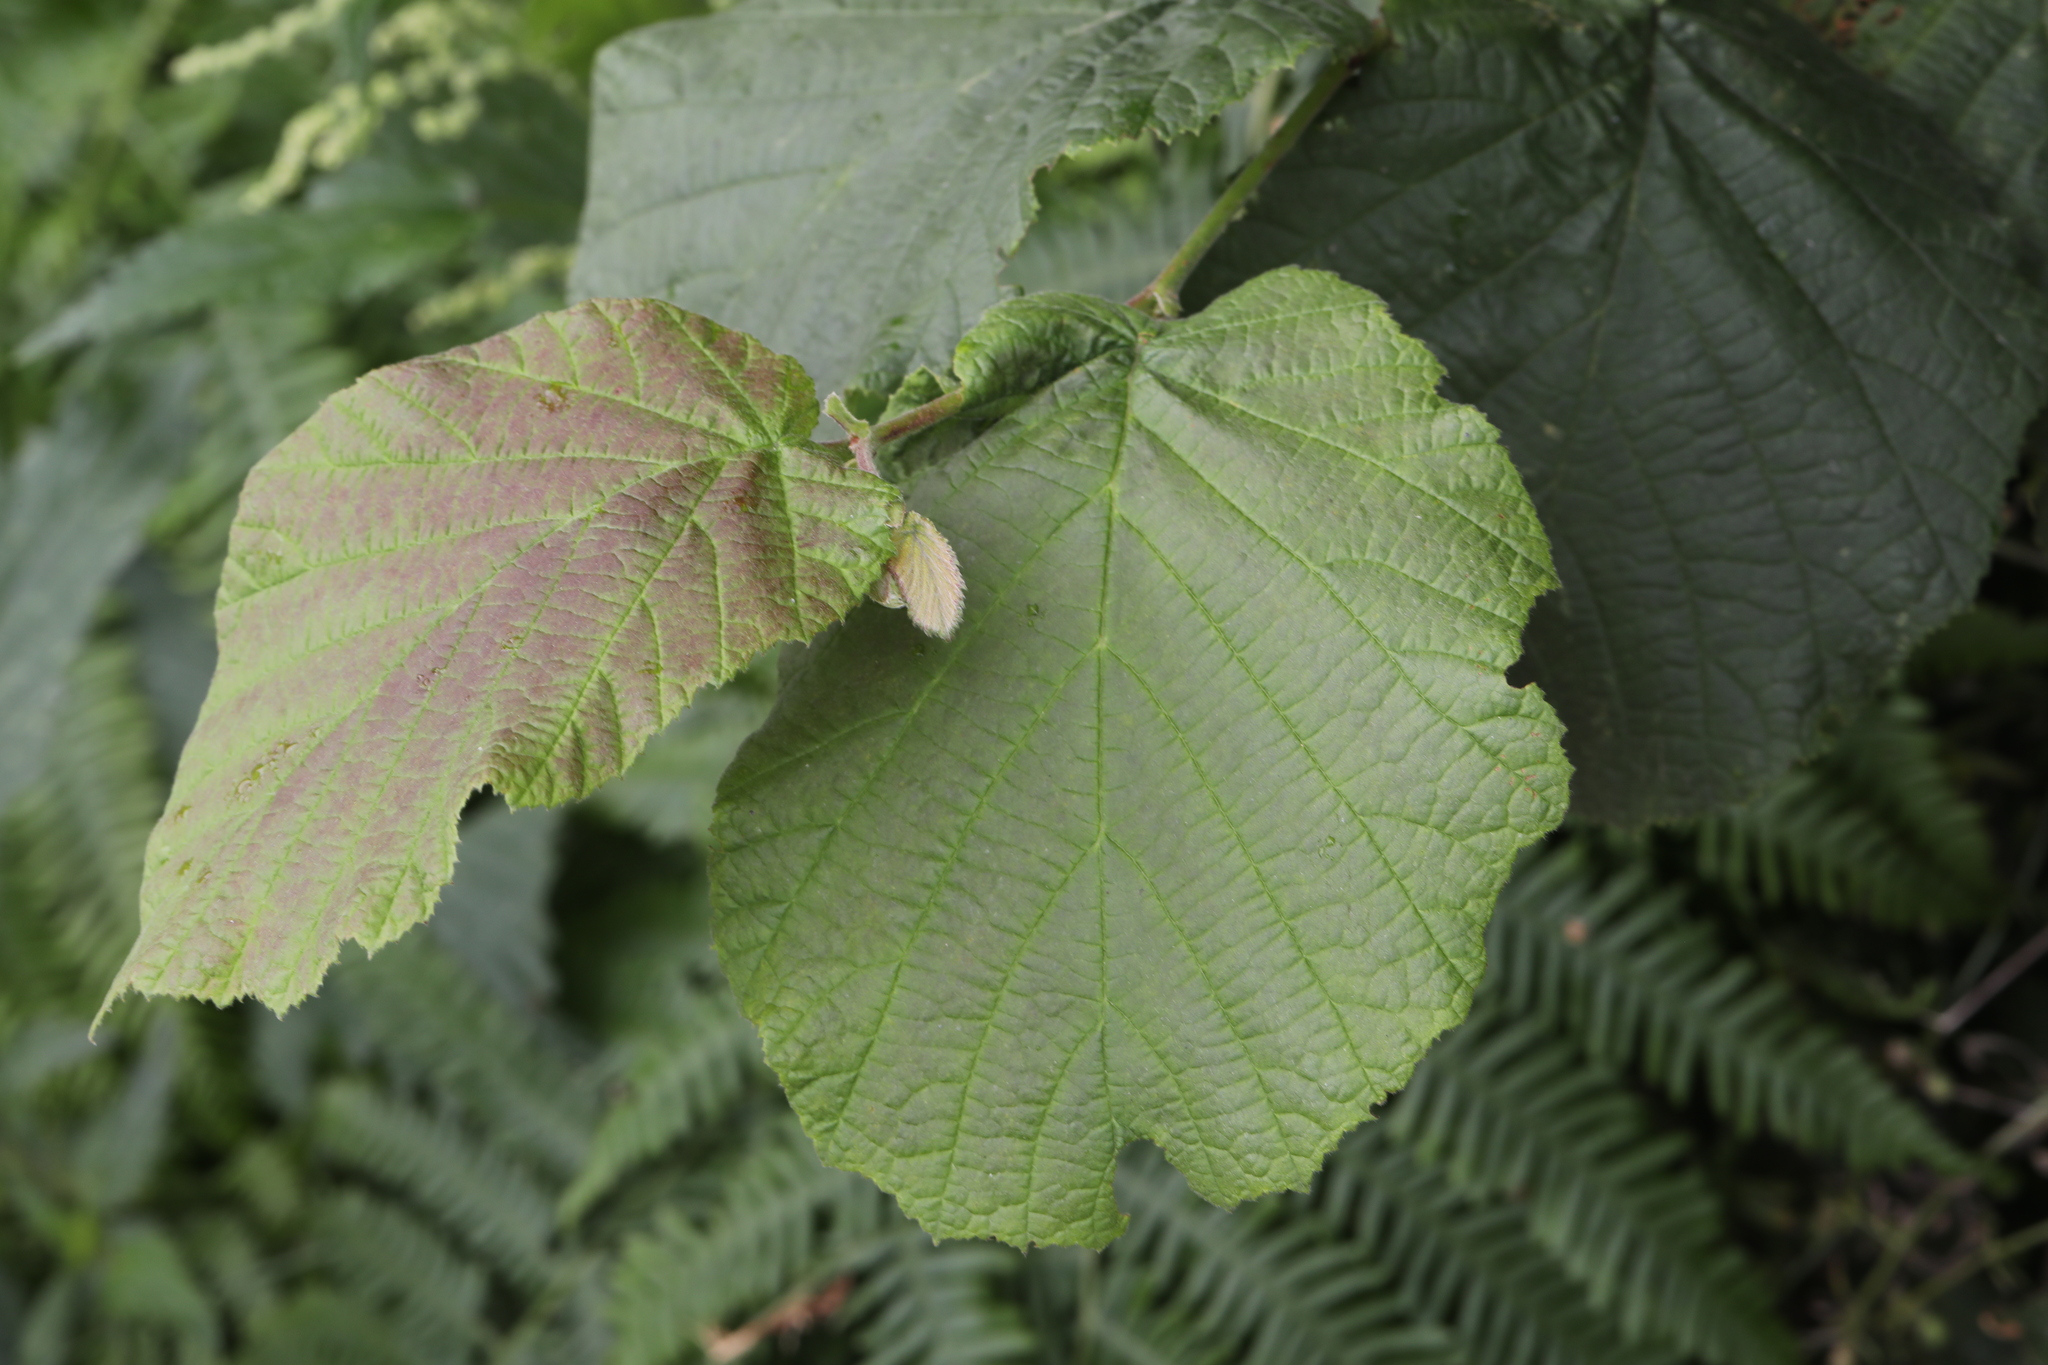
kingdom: Plantae
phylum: Tracheophyta
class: Magnoliopsida
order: Fagales
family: Betulaceae
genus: Corylus
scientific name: Corylus avellana
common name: European hazel
